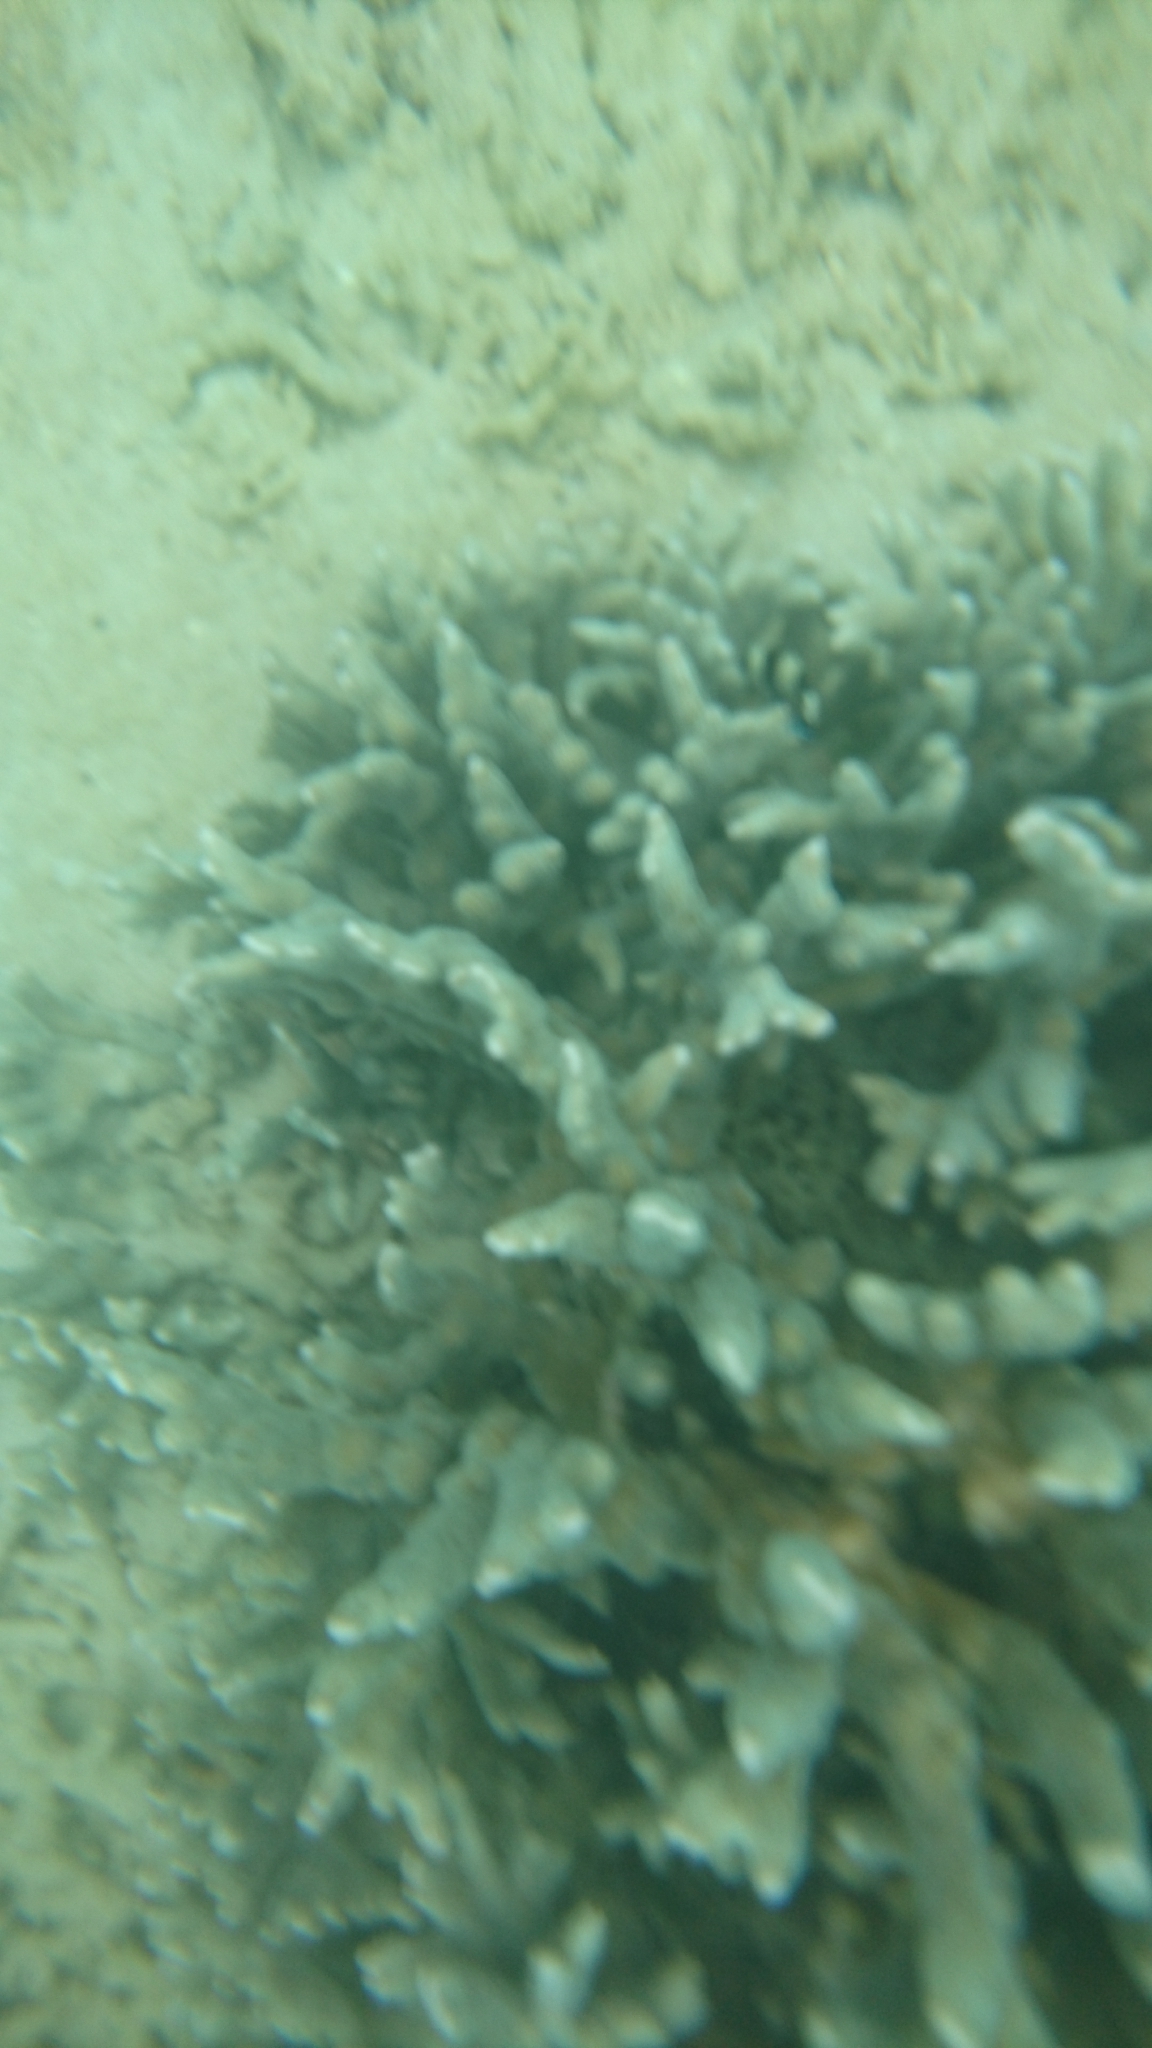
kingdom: Animalia
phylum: Cnidaria
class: Anthozoa
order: Scleractinia
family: Acroporidae
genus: Montipora
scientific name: Montipora digitata
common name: Pore coral
